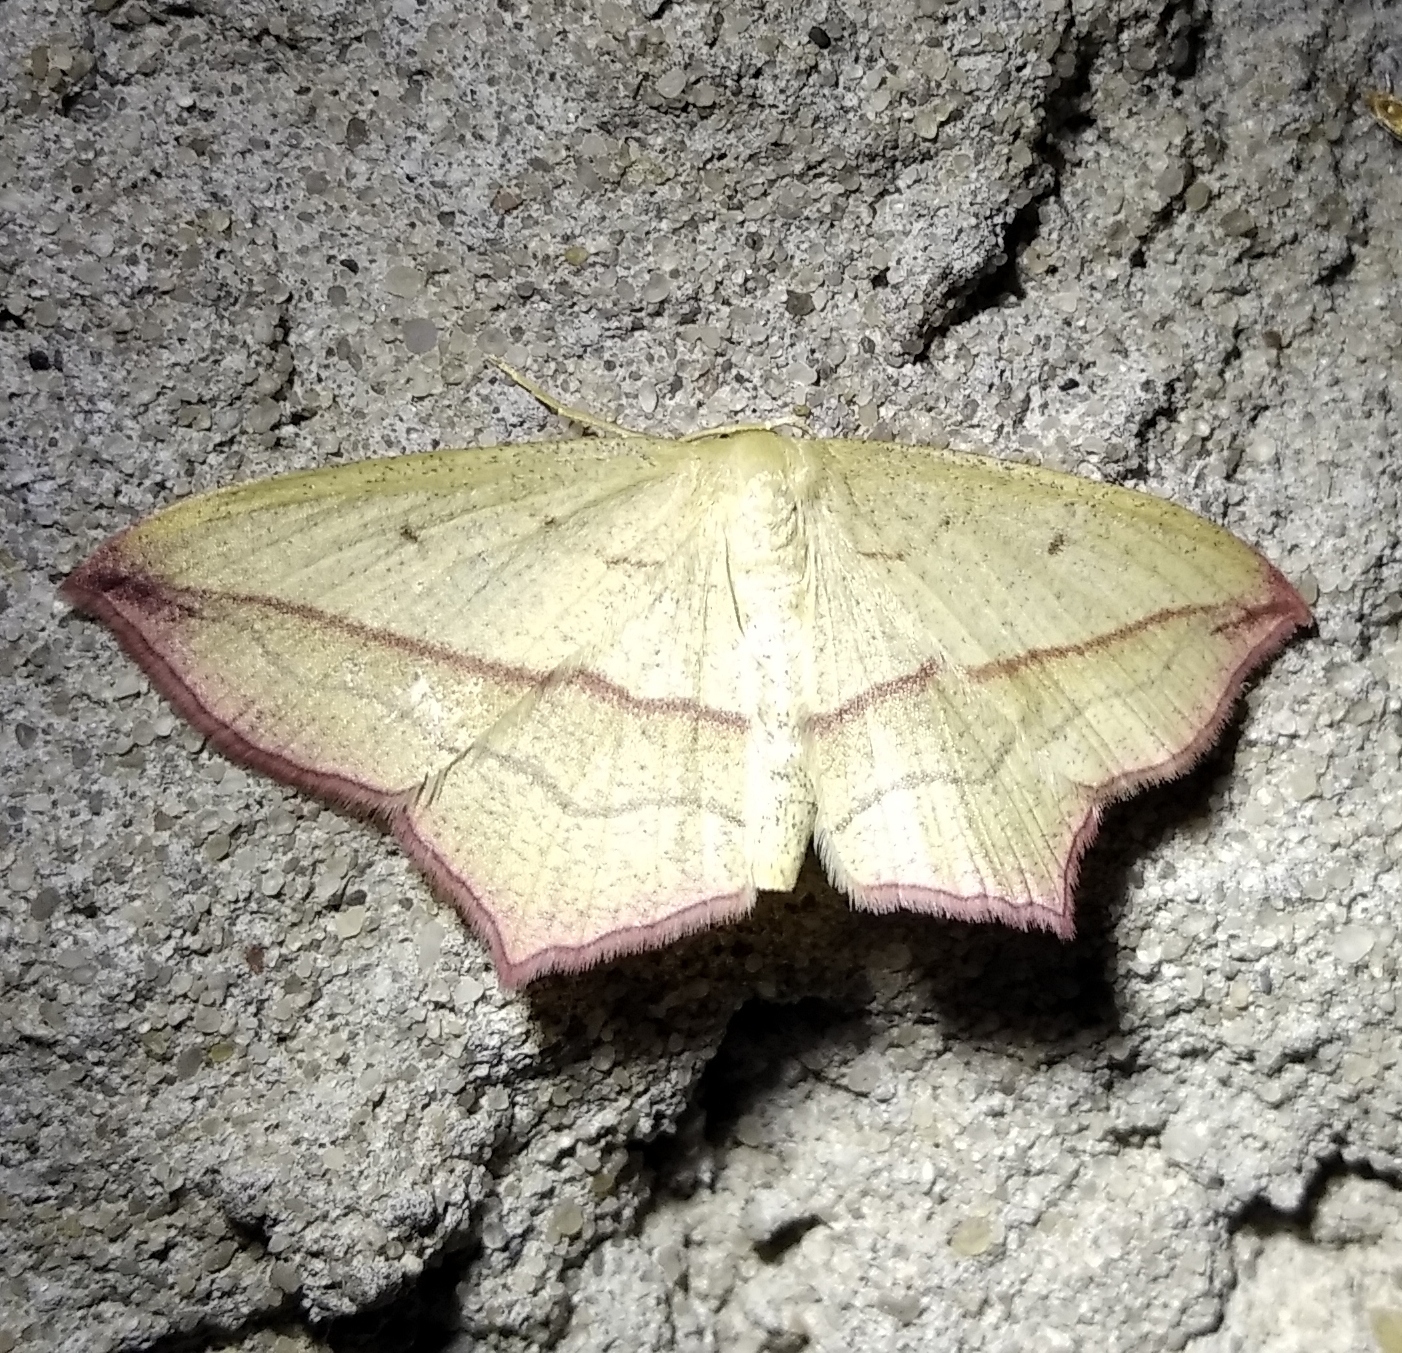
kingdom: Animalia
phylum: Arthropoda
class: Insecta
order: Lepidoptera
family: Geometridae
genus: Timandra
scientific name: Timandra comae
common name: Blood-vein
